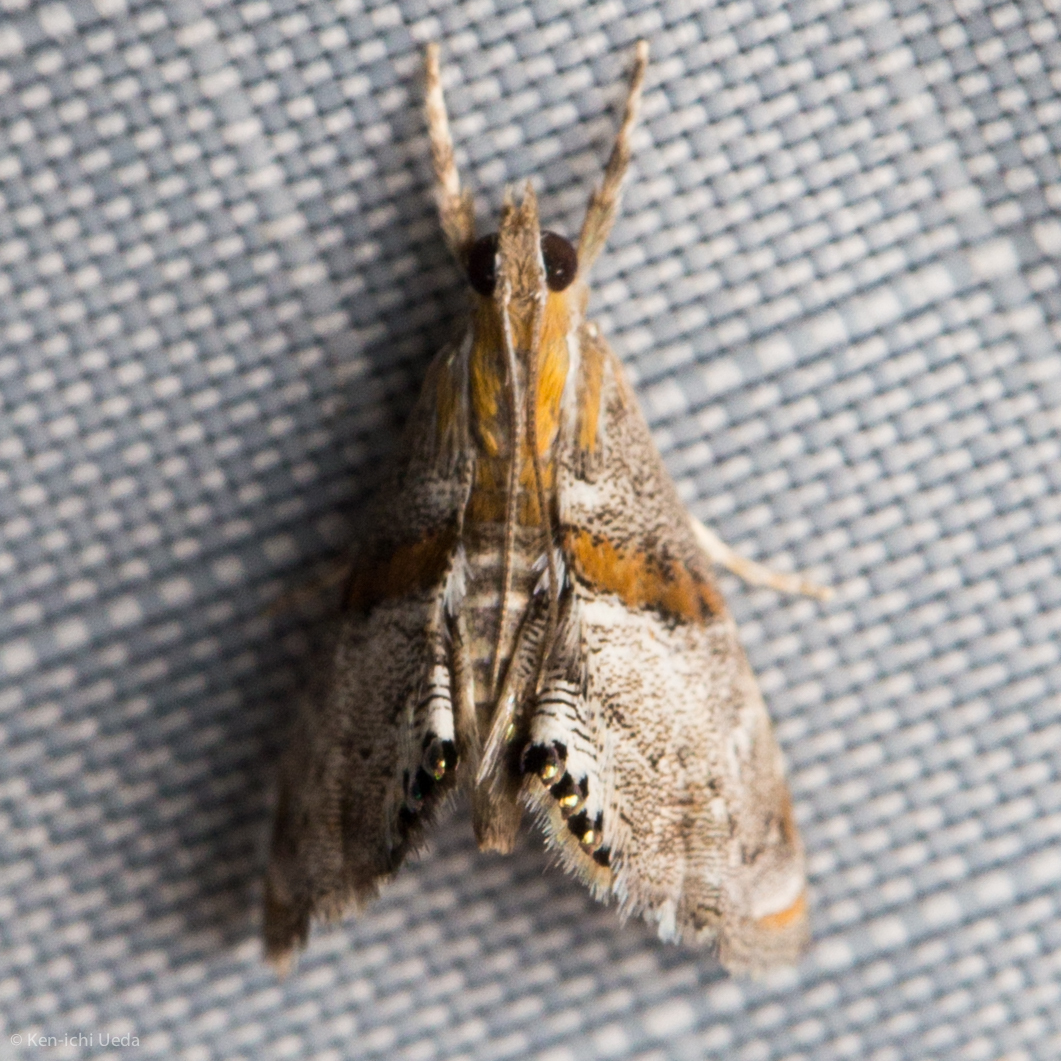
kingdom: Animalia
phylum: Arthropoda
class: Insecta
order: Lepidoptera
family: Crambidae
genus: Dicymolomia
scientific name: Dicymolomia metalliferalis
